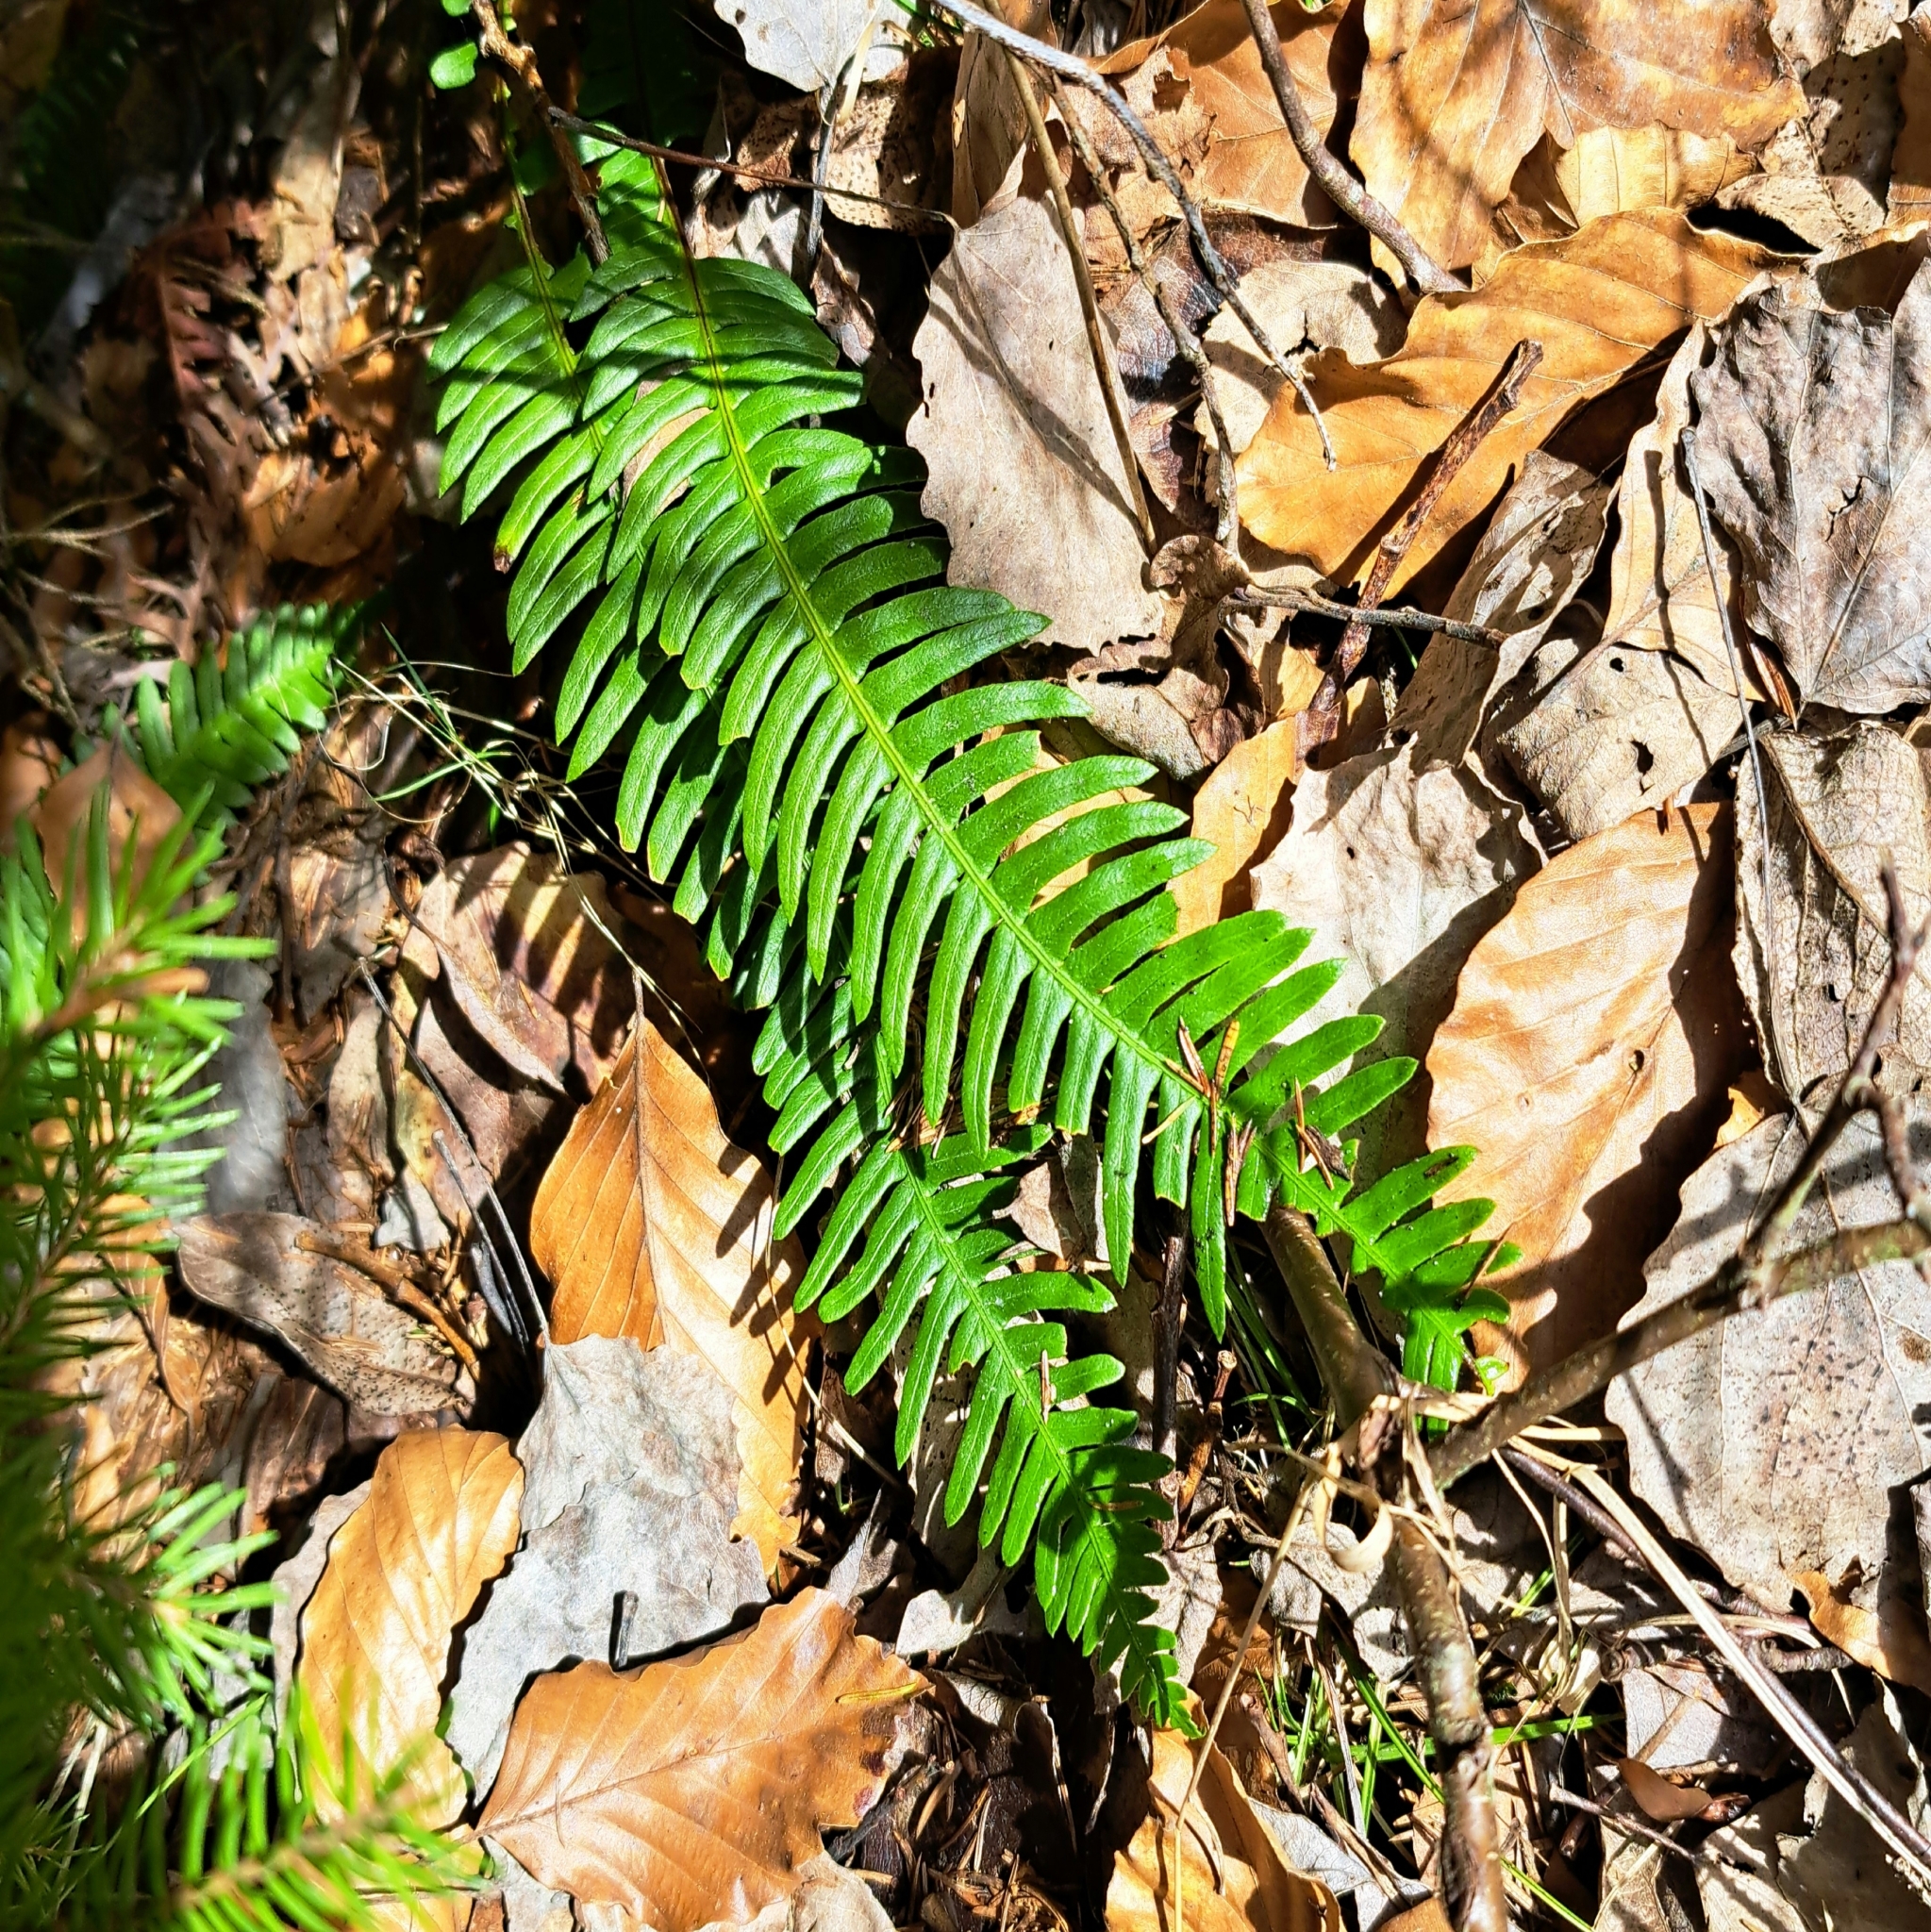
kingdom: Plantae
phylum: Tracheophyta
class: Polypodiopsida
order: Polypodiales
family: Blechnaceae
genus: Struthiopteris
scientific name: Struthiopteris spicant
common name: Deer fern
